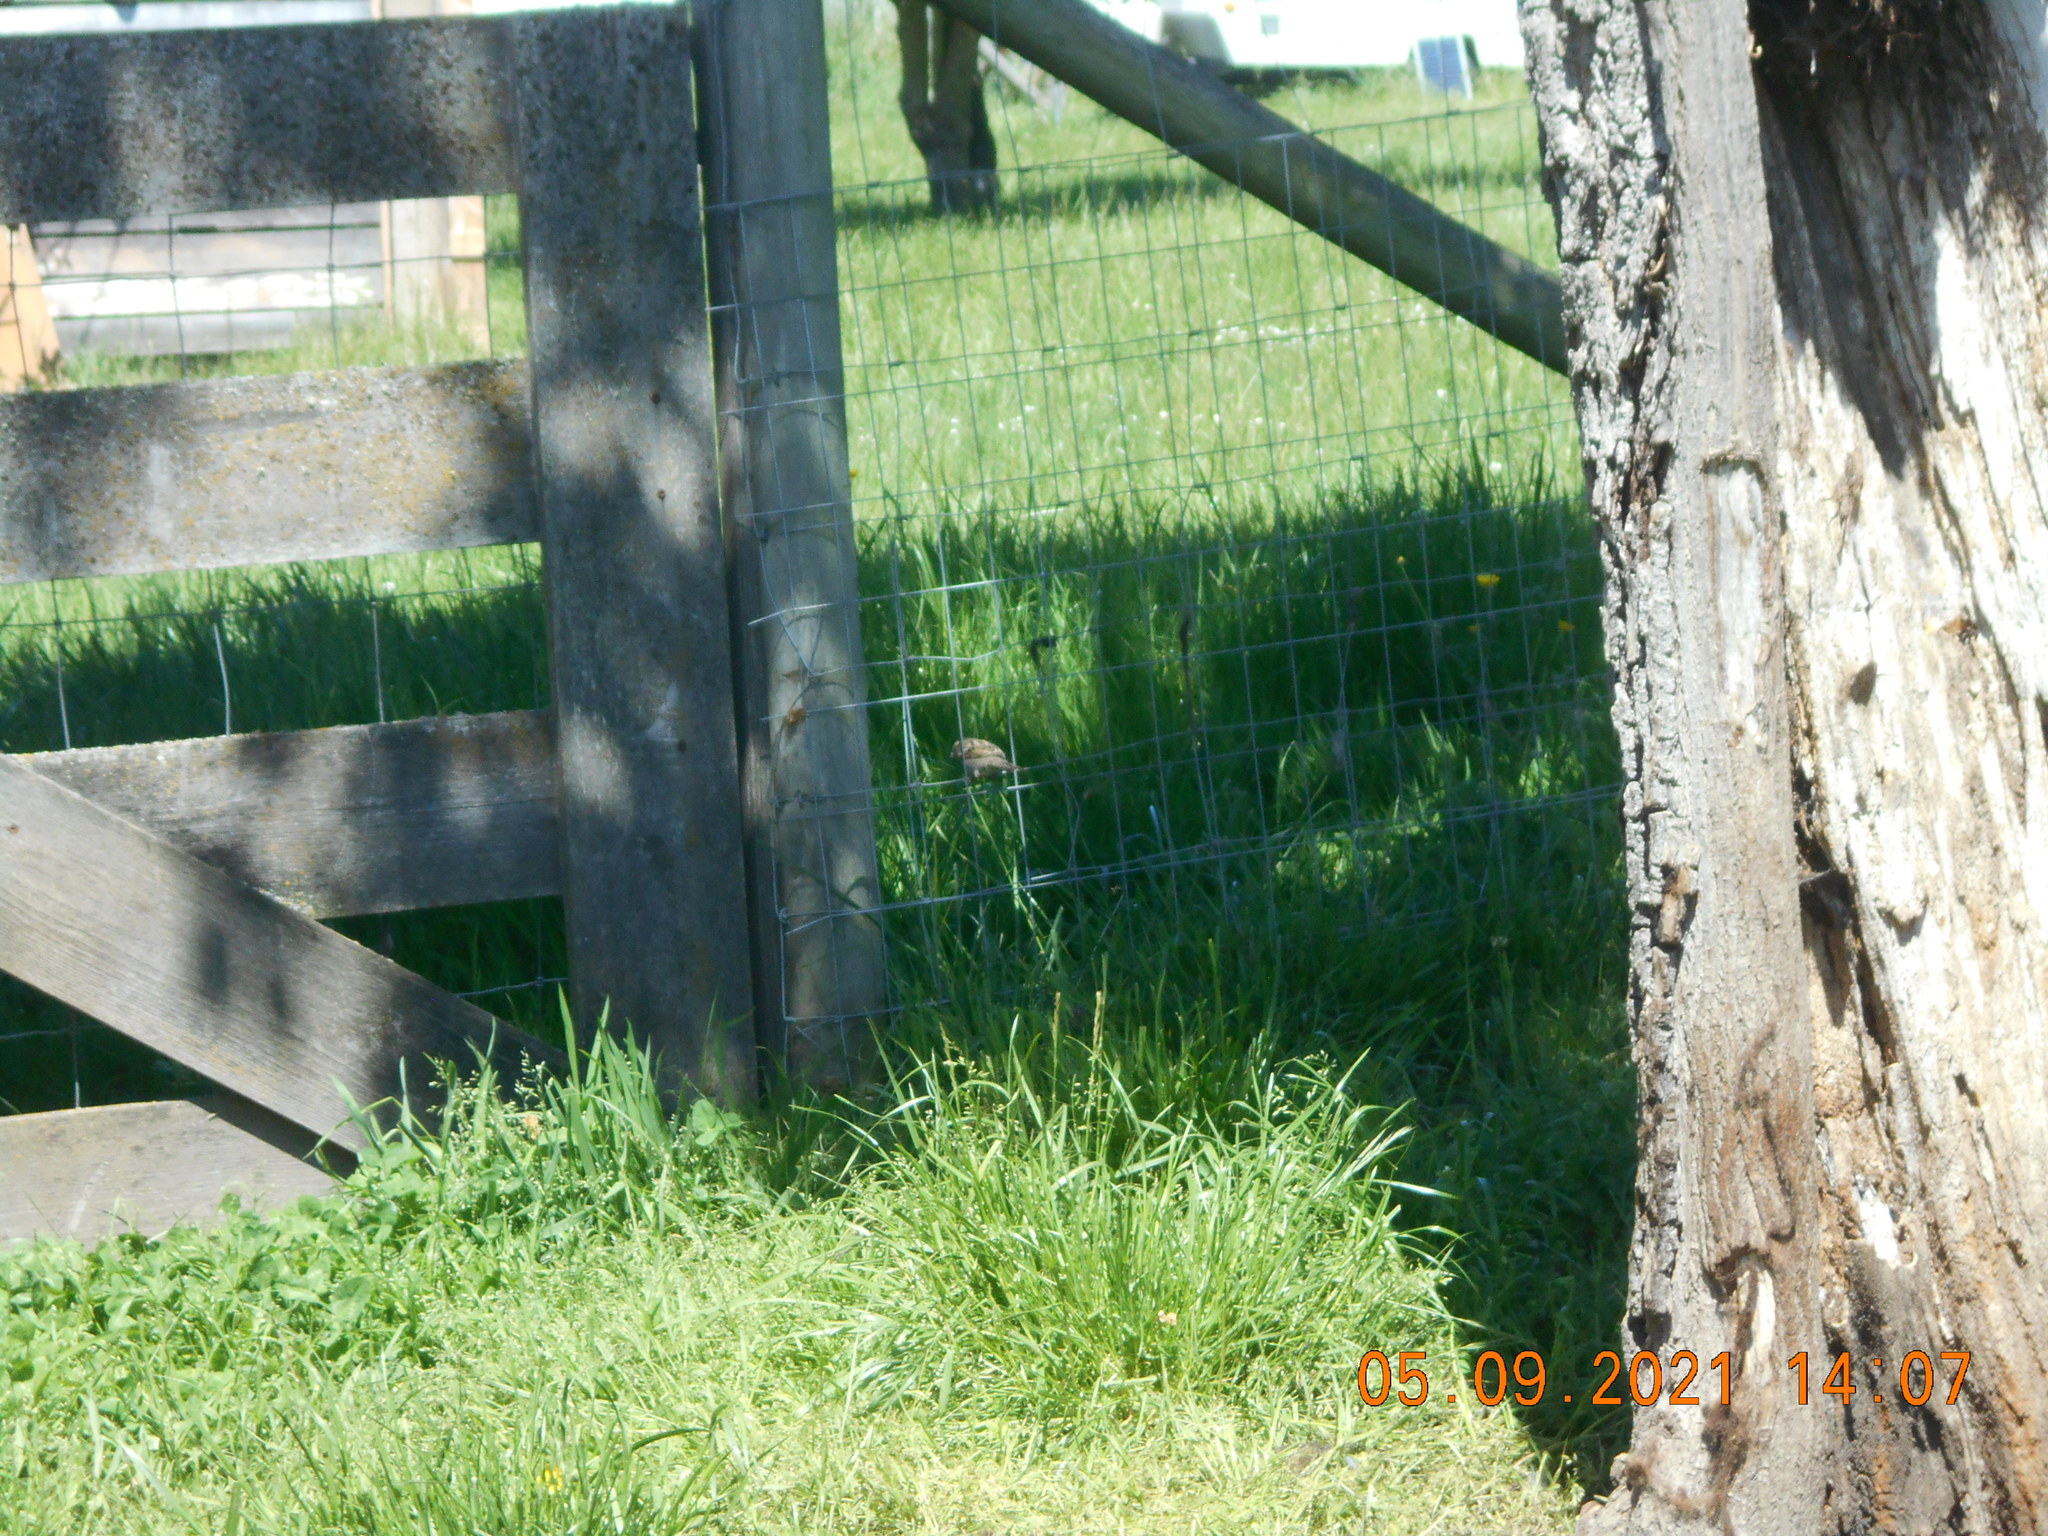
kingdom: Animalia
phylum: Chordata
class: Aves
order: Passeriformes
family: Passeridae
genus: Passer
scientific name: Passer domesticus
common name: House sparrow
